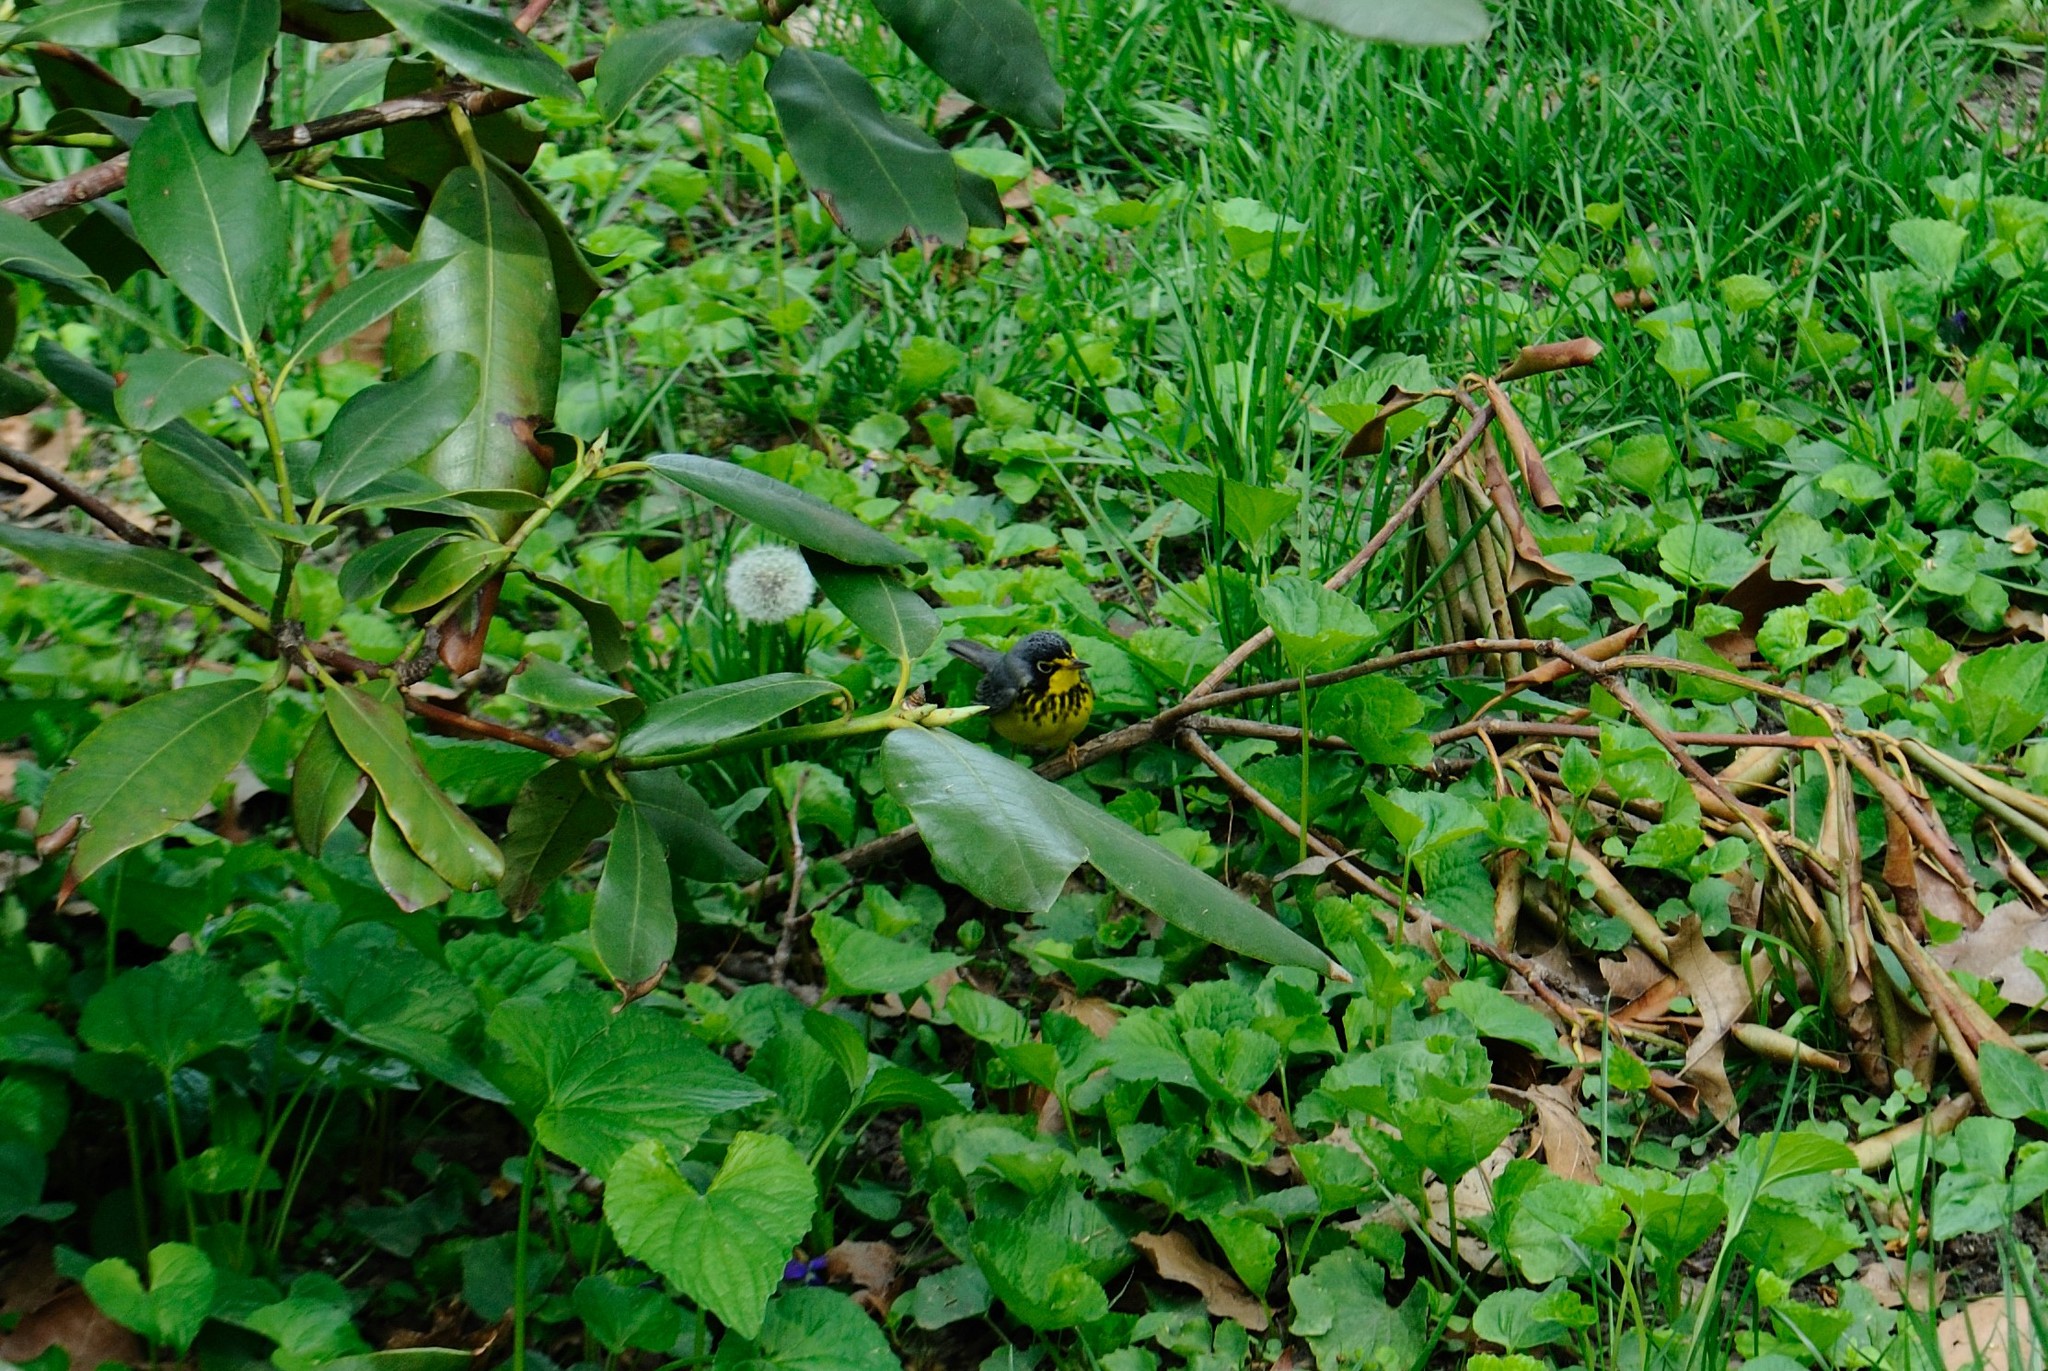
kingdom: Animalia
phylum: Chordata
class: Aves
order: Passeriformes
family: Parulidae
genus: Cardellina
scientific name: Cardellina canadensis
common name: Canada warbler
